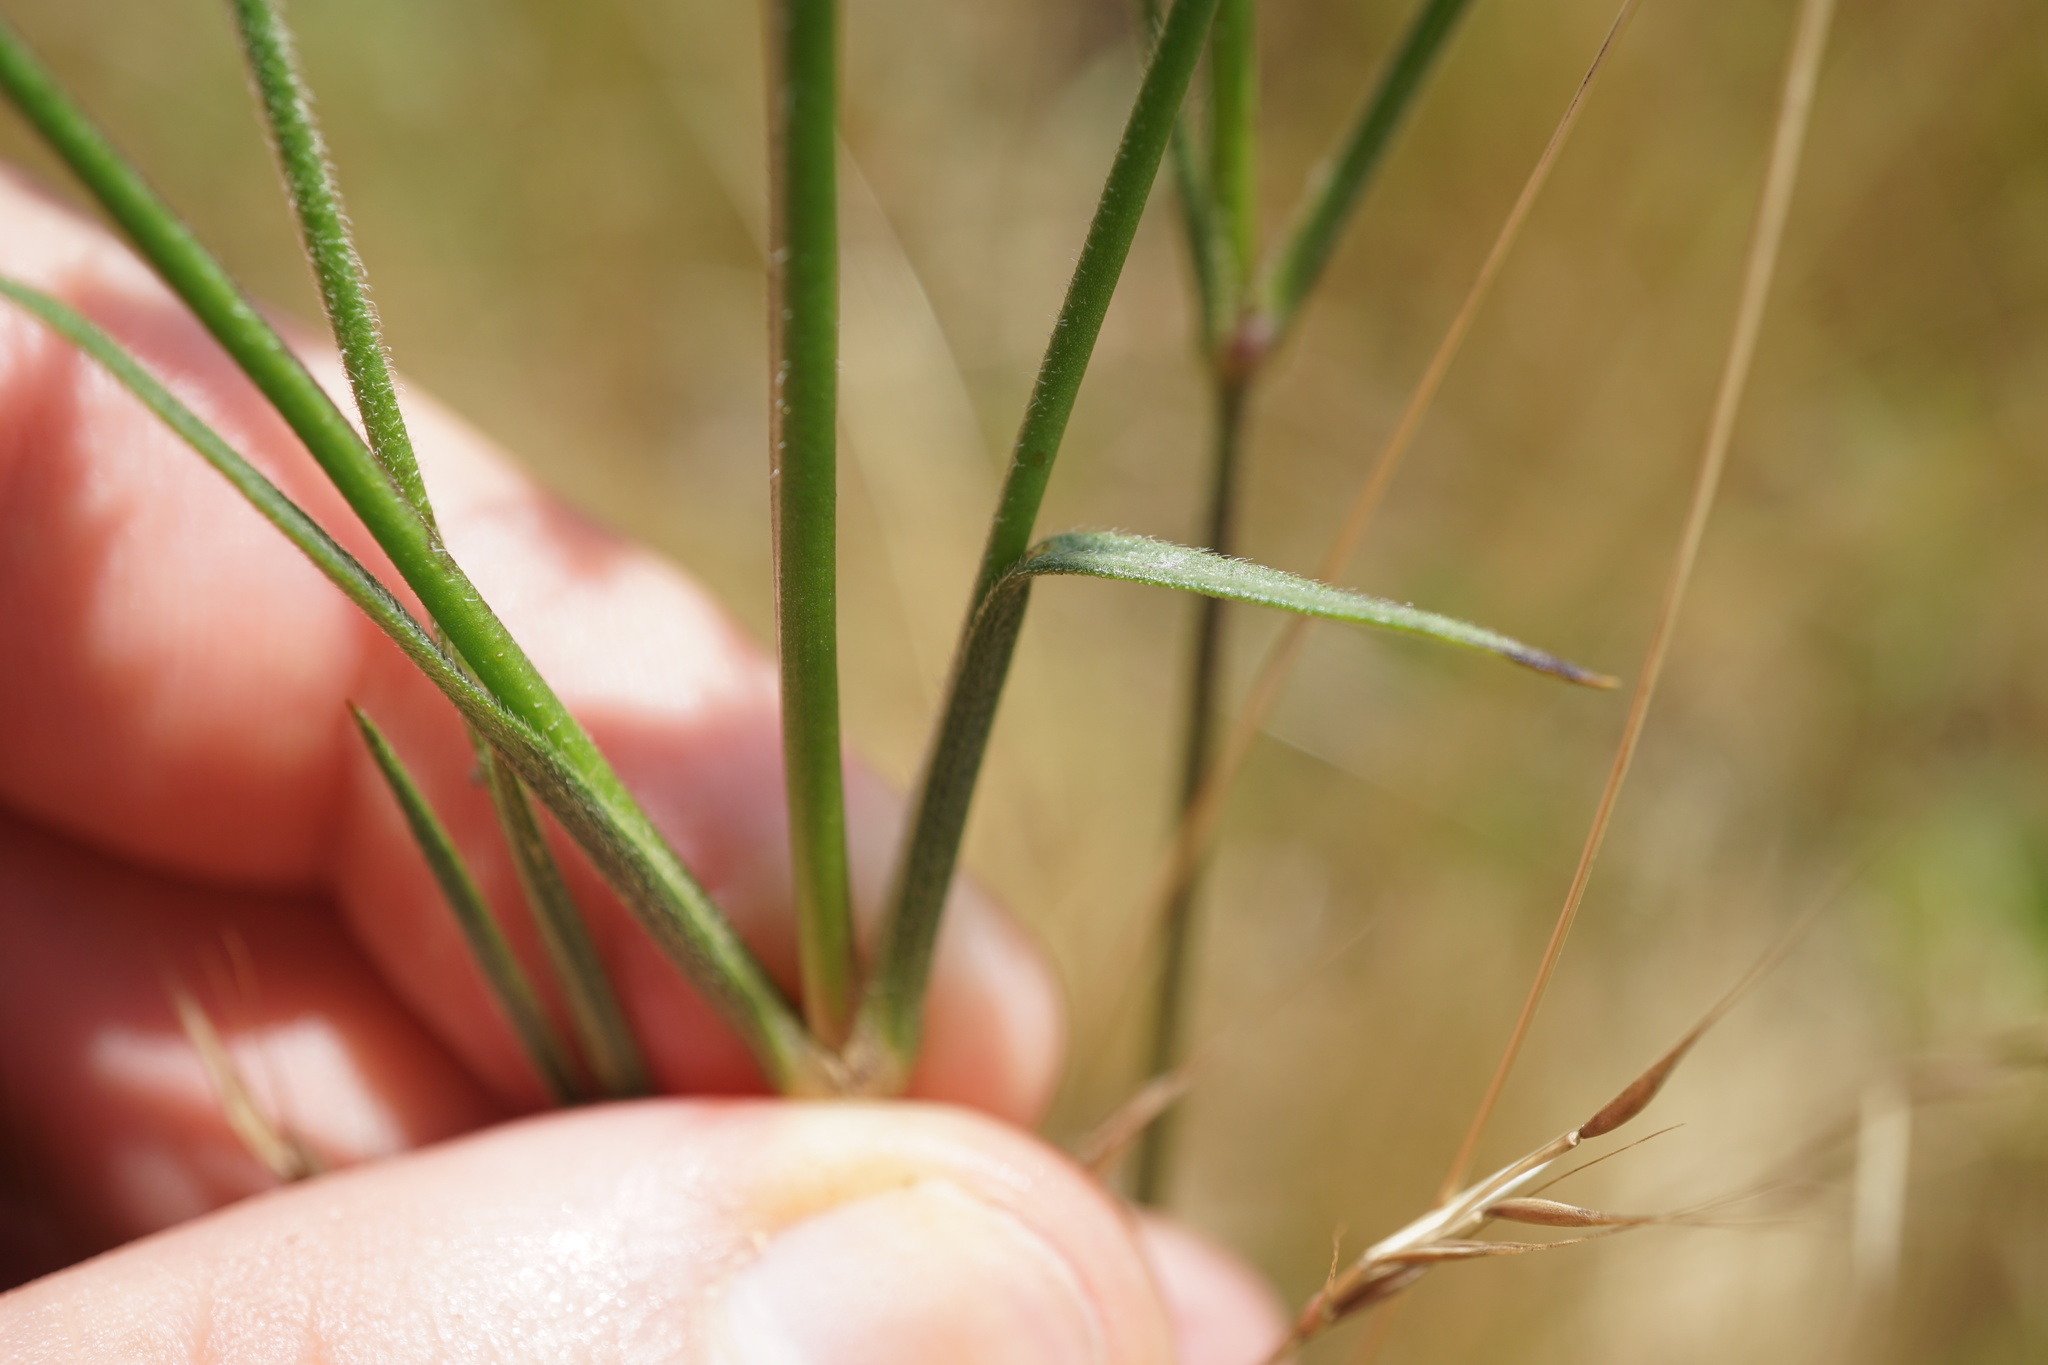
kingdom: Plantae
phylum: Tracheophyta
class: Magnoliopsida
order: Caryophyllales
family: Caryophyllaceae
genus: Dianthus
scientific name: Dianthus armeria
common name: Deptford pink
